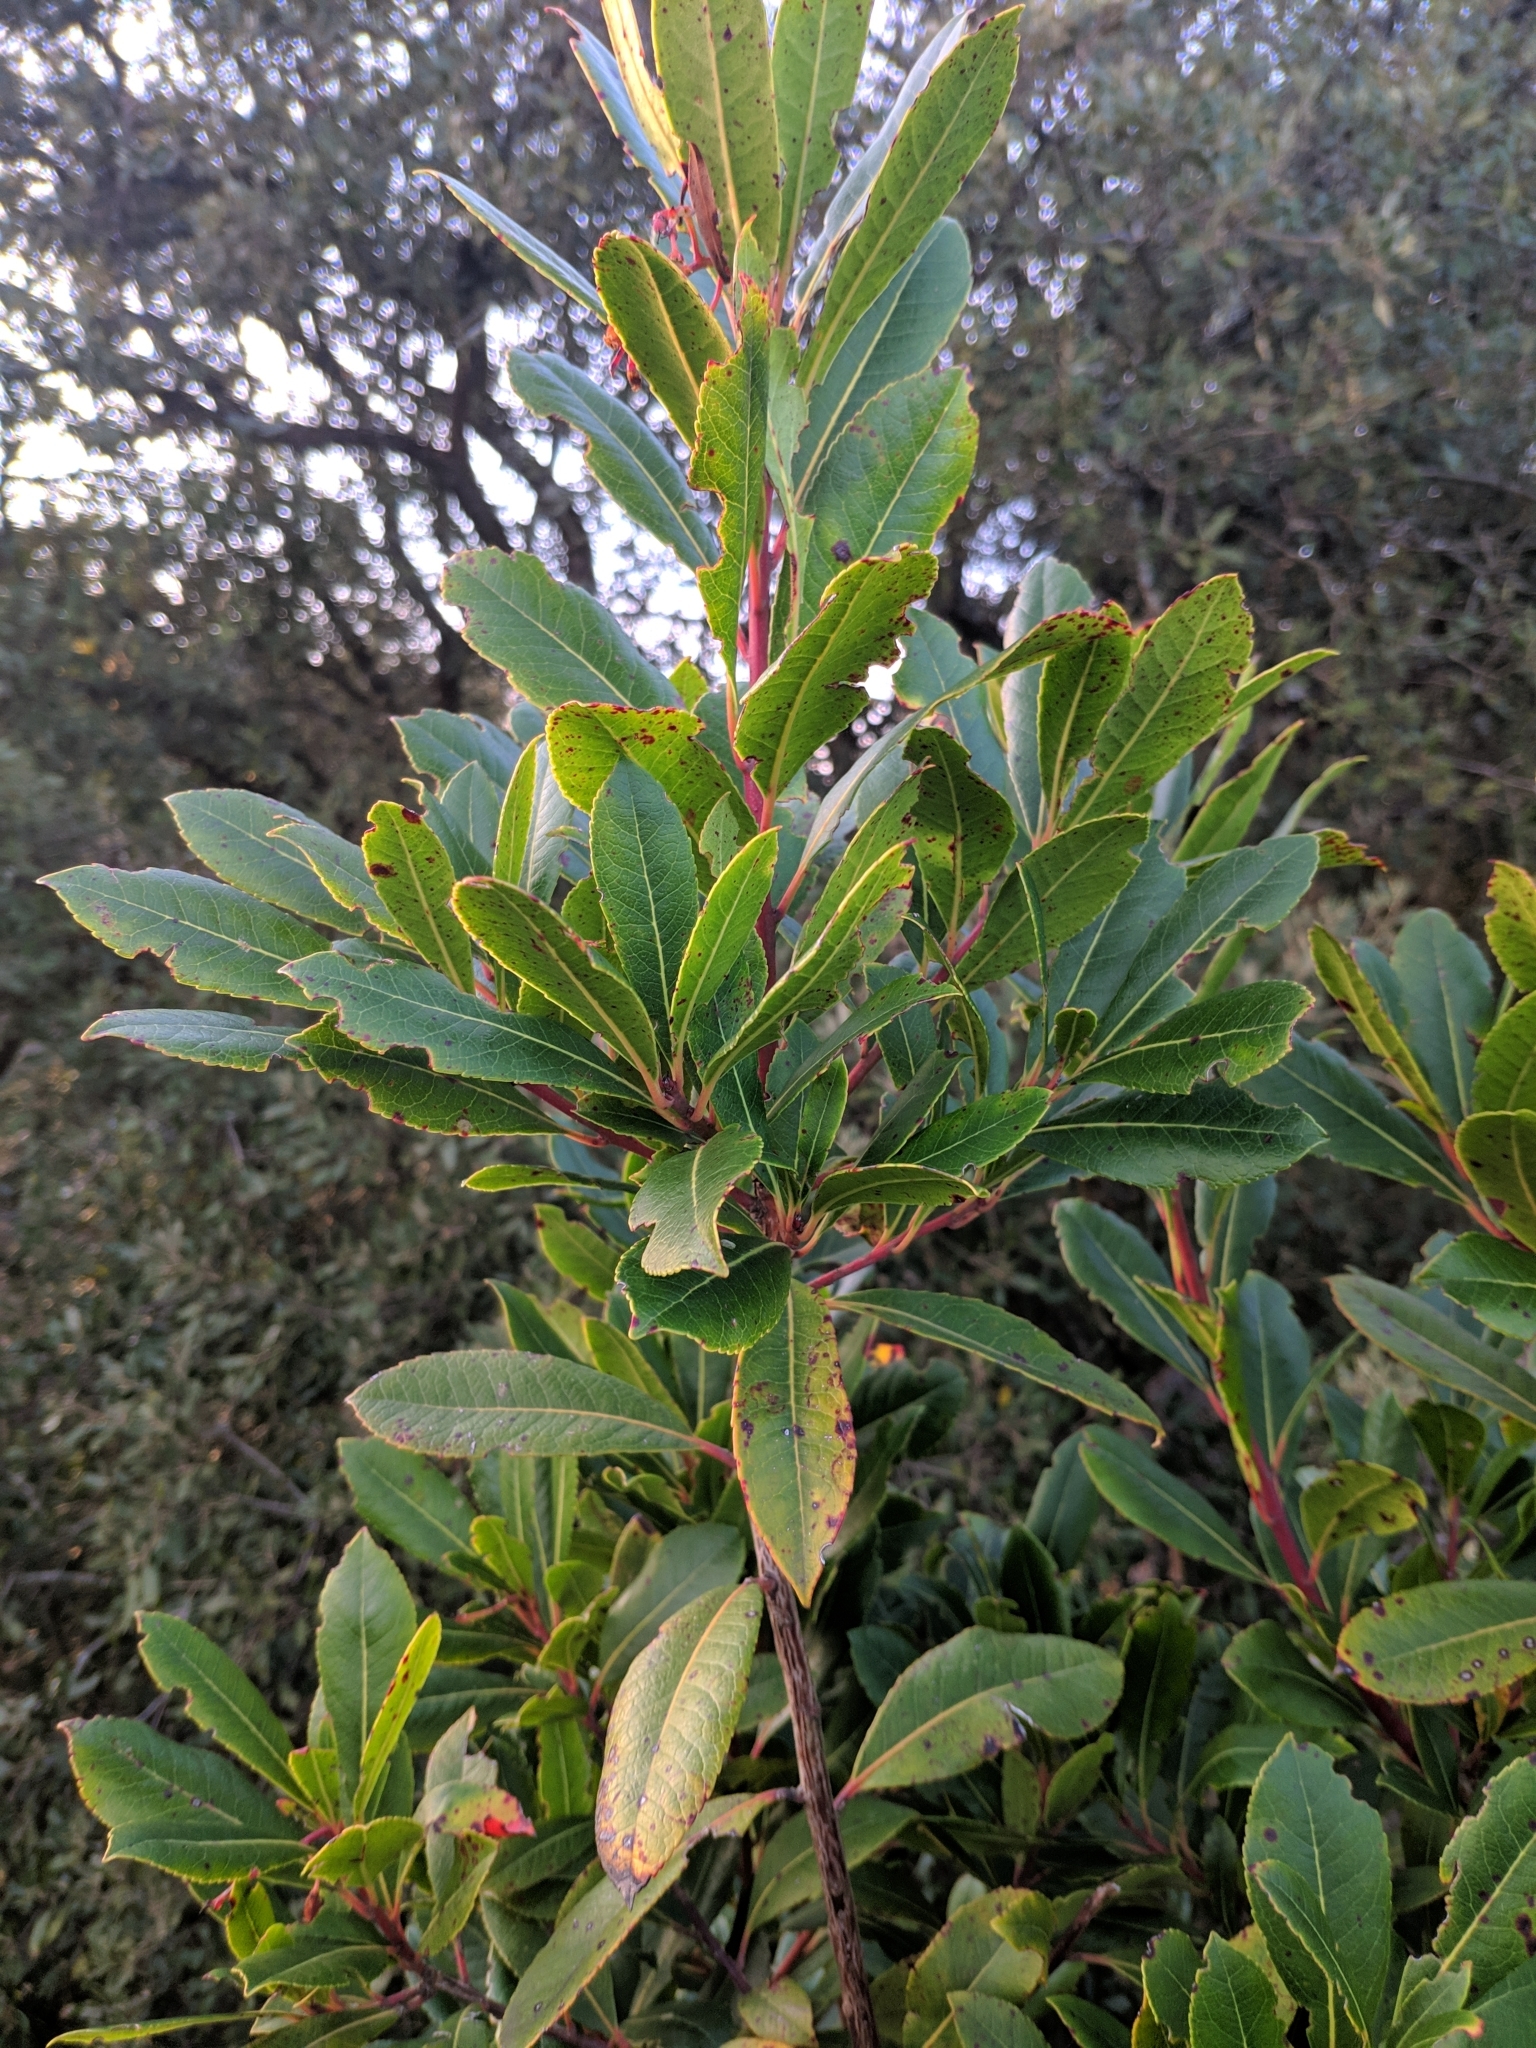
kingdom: Plantae
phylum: Tracheophyta
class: Magnoliopsida
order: Ericales
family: Ericaceae
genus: Arbutus
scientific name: Arbutus unedo
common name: Strawberry-tree
